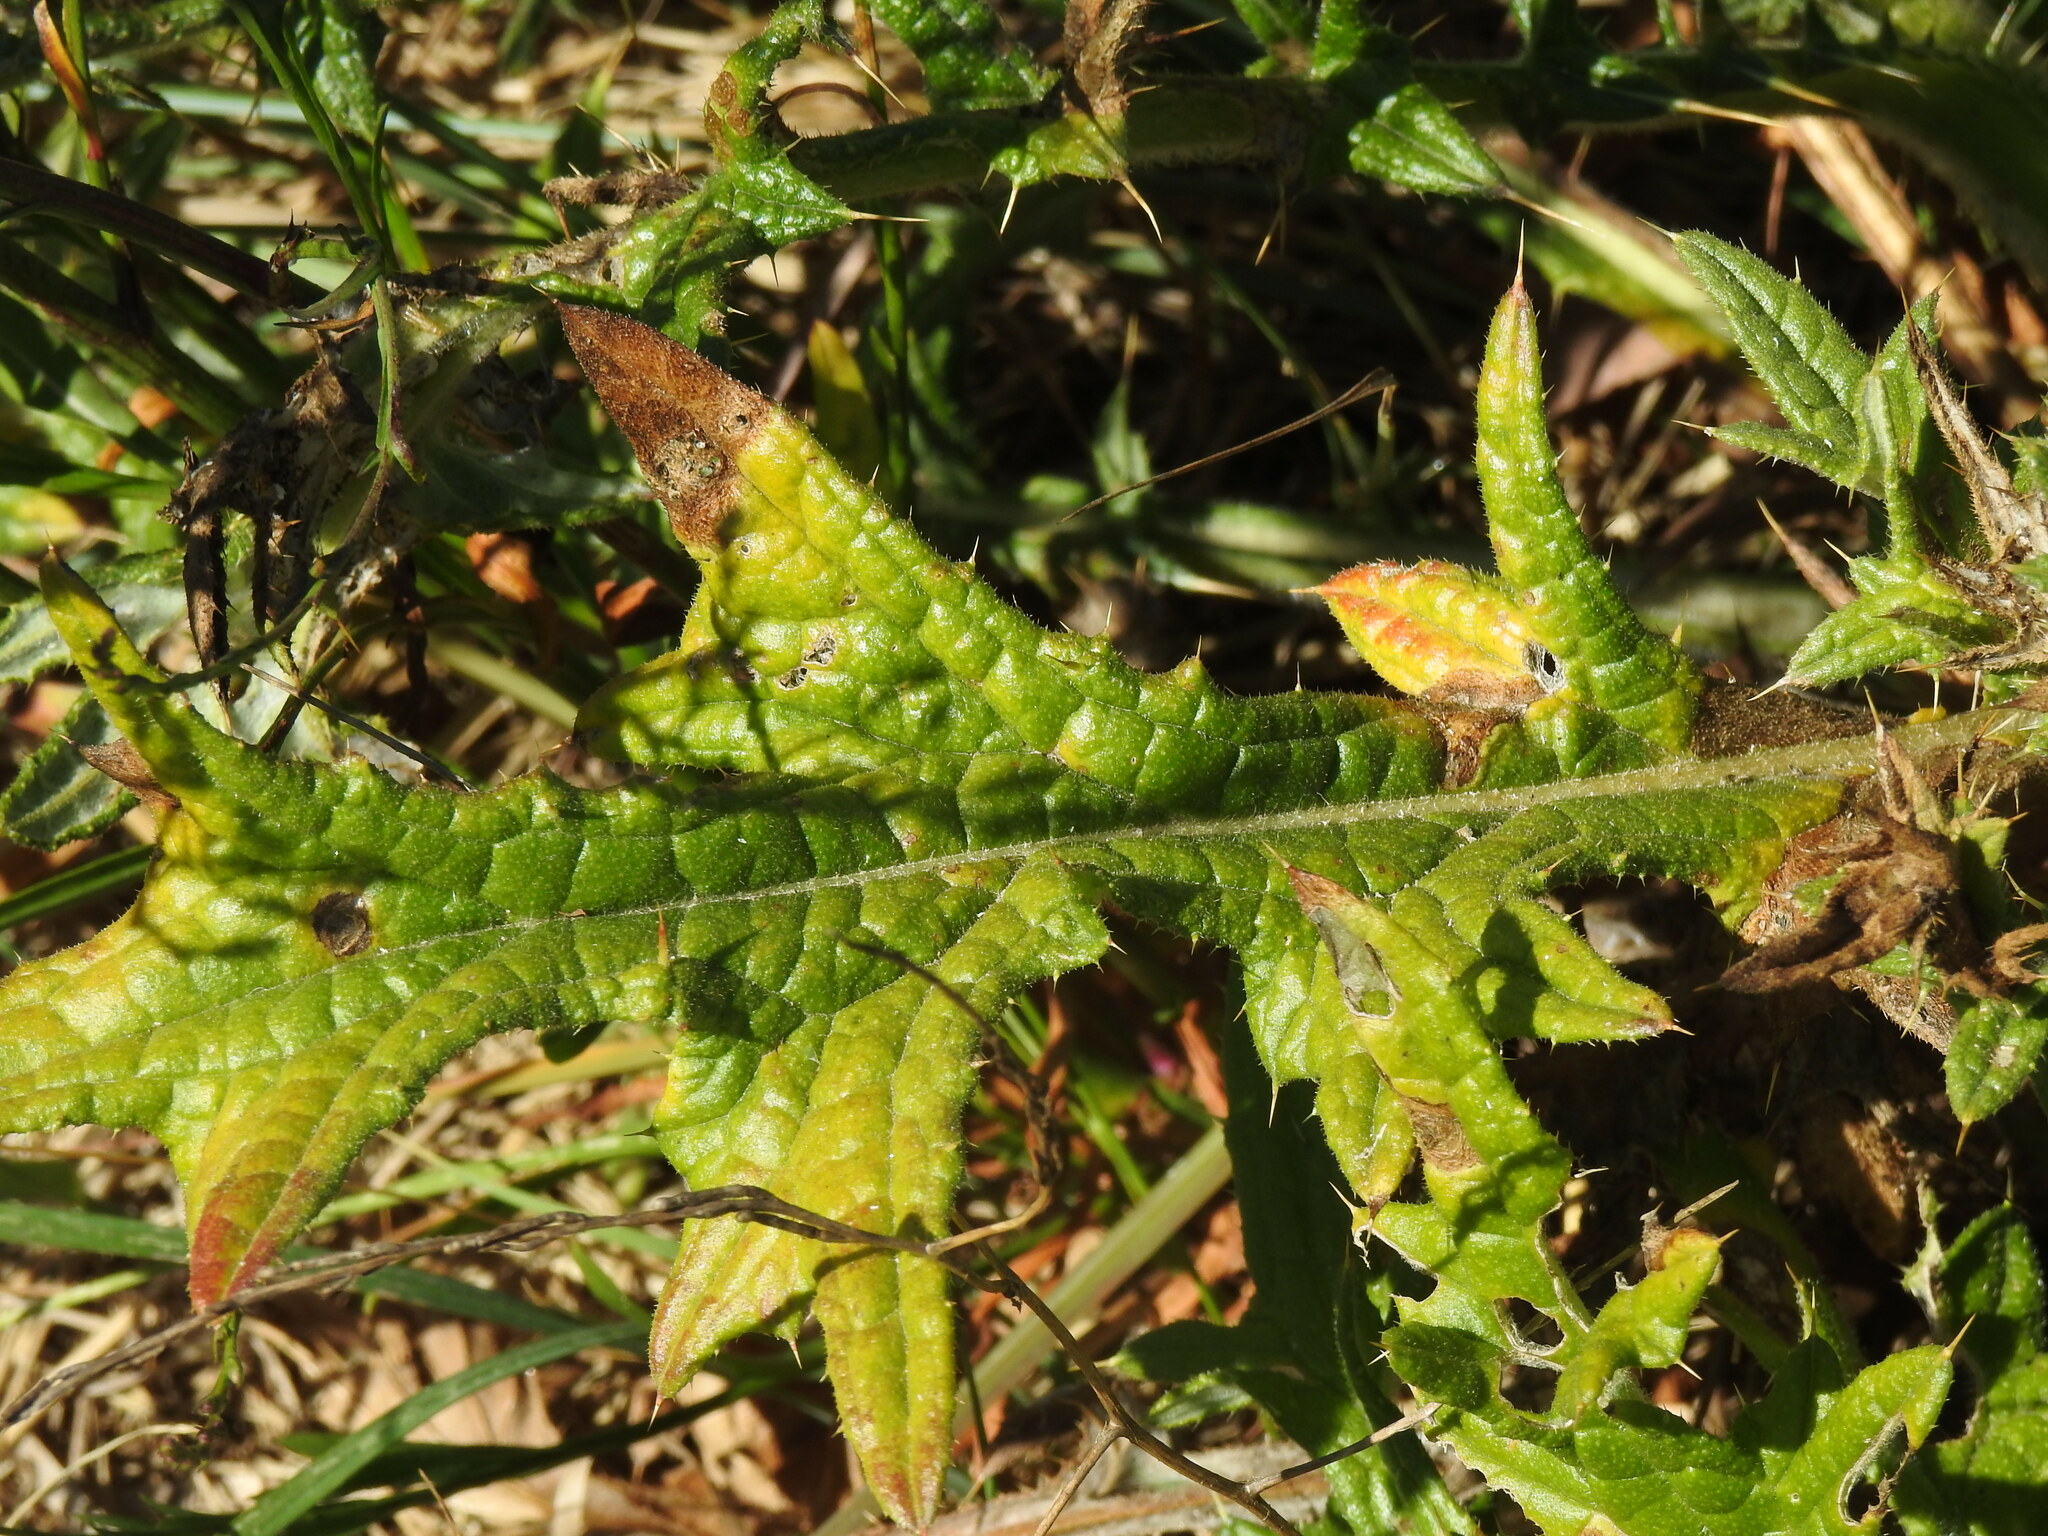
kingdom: Plantae
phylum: Tracheophyta
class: Magnoliopsida
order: Asterales
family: Asteraceae
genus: Cirsium
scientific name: Cirsium vulgare
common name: Bull thistle
